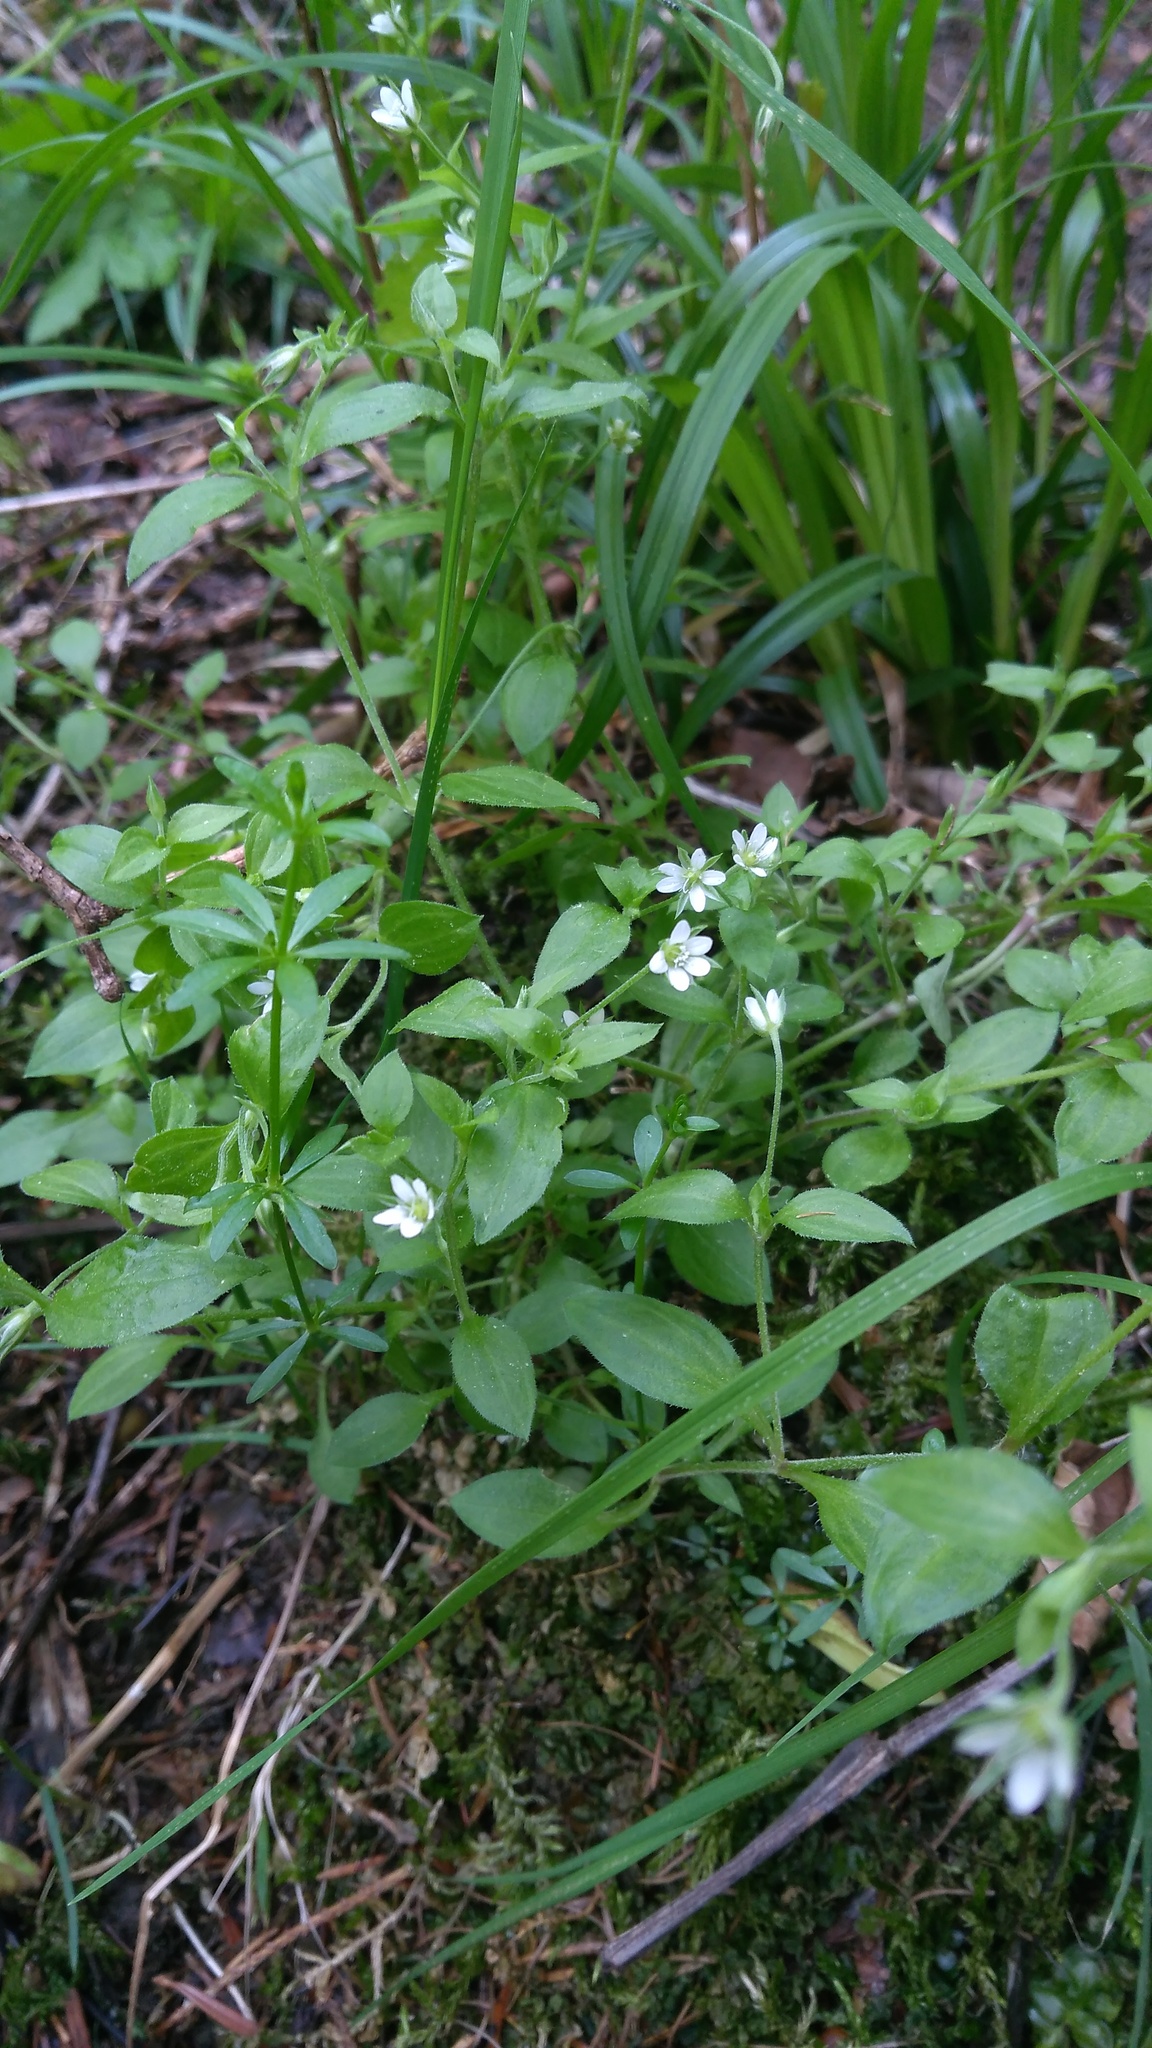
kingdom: Plantae
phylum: Tracheophyta
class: Magnoliopsida
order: Caryophyllales
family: Caryophyllaceae
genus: Moehringia
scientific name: Moehringia trinervia
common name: Three-nerved sandwort
